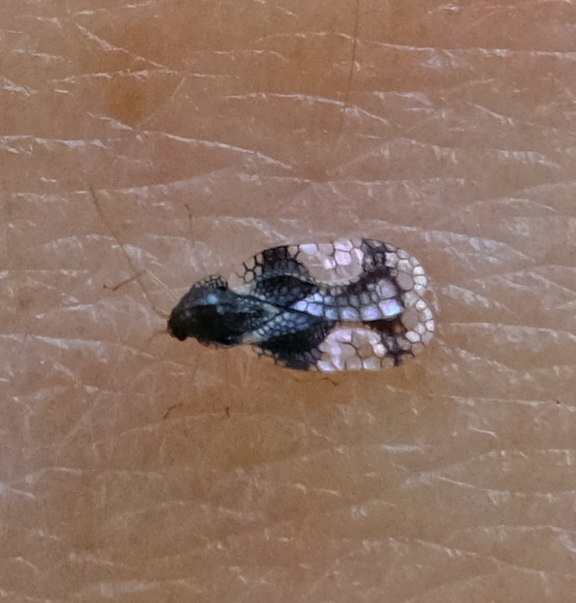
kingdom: Animalia
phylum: Arthropoda
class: Insecta
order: Hemiptera
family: Tingidae
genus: Stephanitis
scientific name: Stephanitis takeyai
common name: Andromeda lacebug
